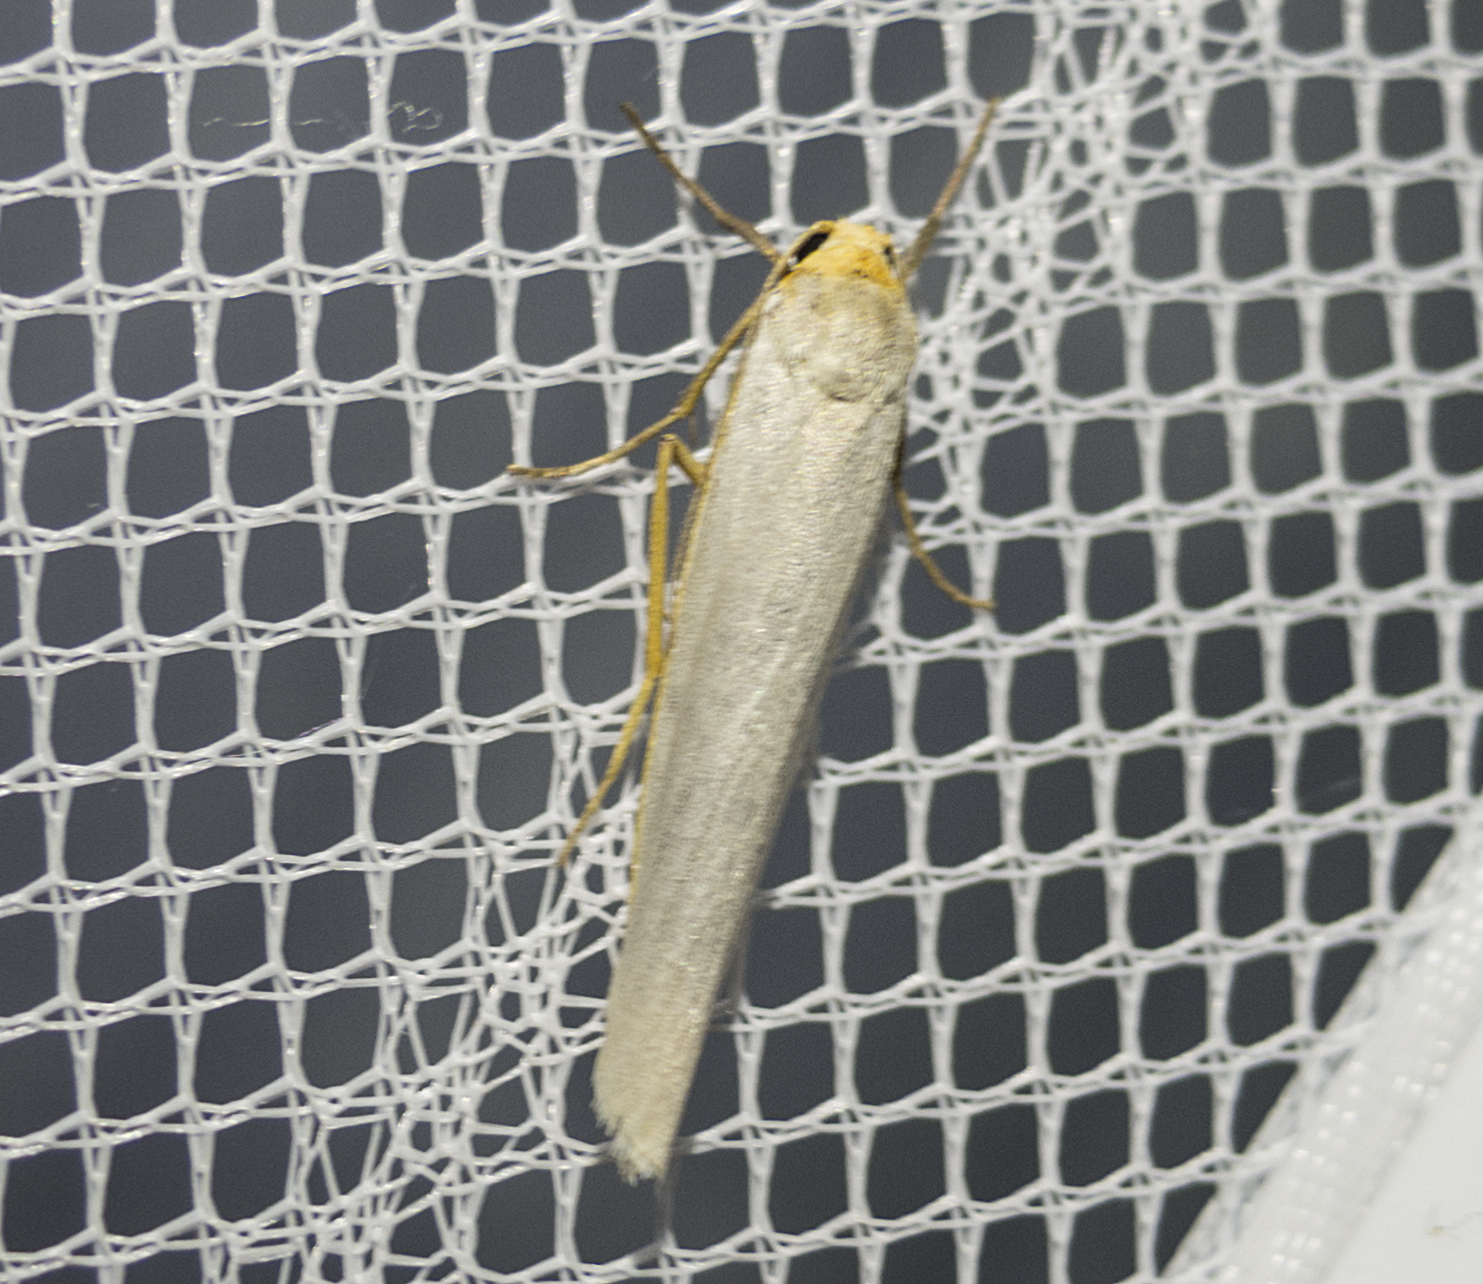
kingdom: Animalia
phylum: Arthropoda
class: Insecta
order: Lepidoptera
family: Erebidae
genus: Eilema
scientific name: Eilema caniola
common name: Hoary footman
